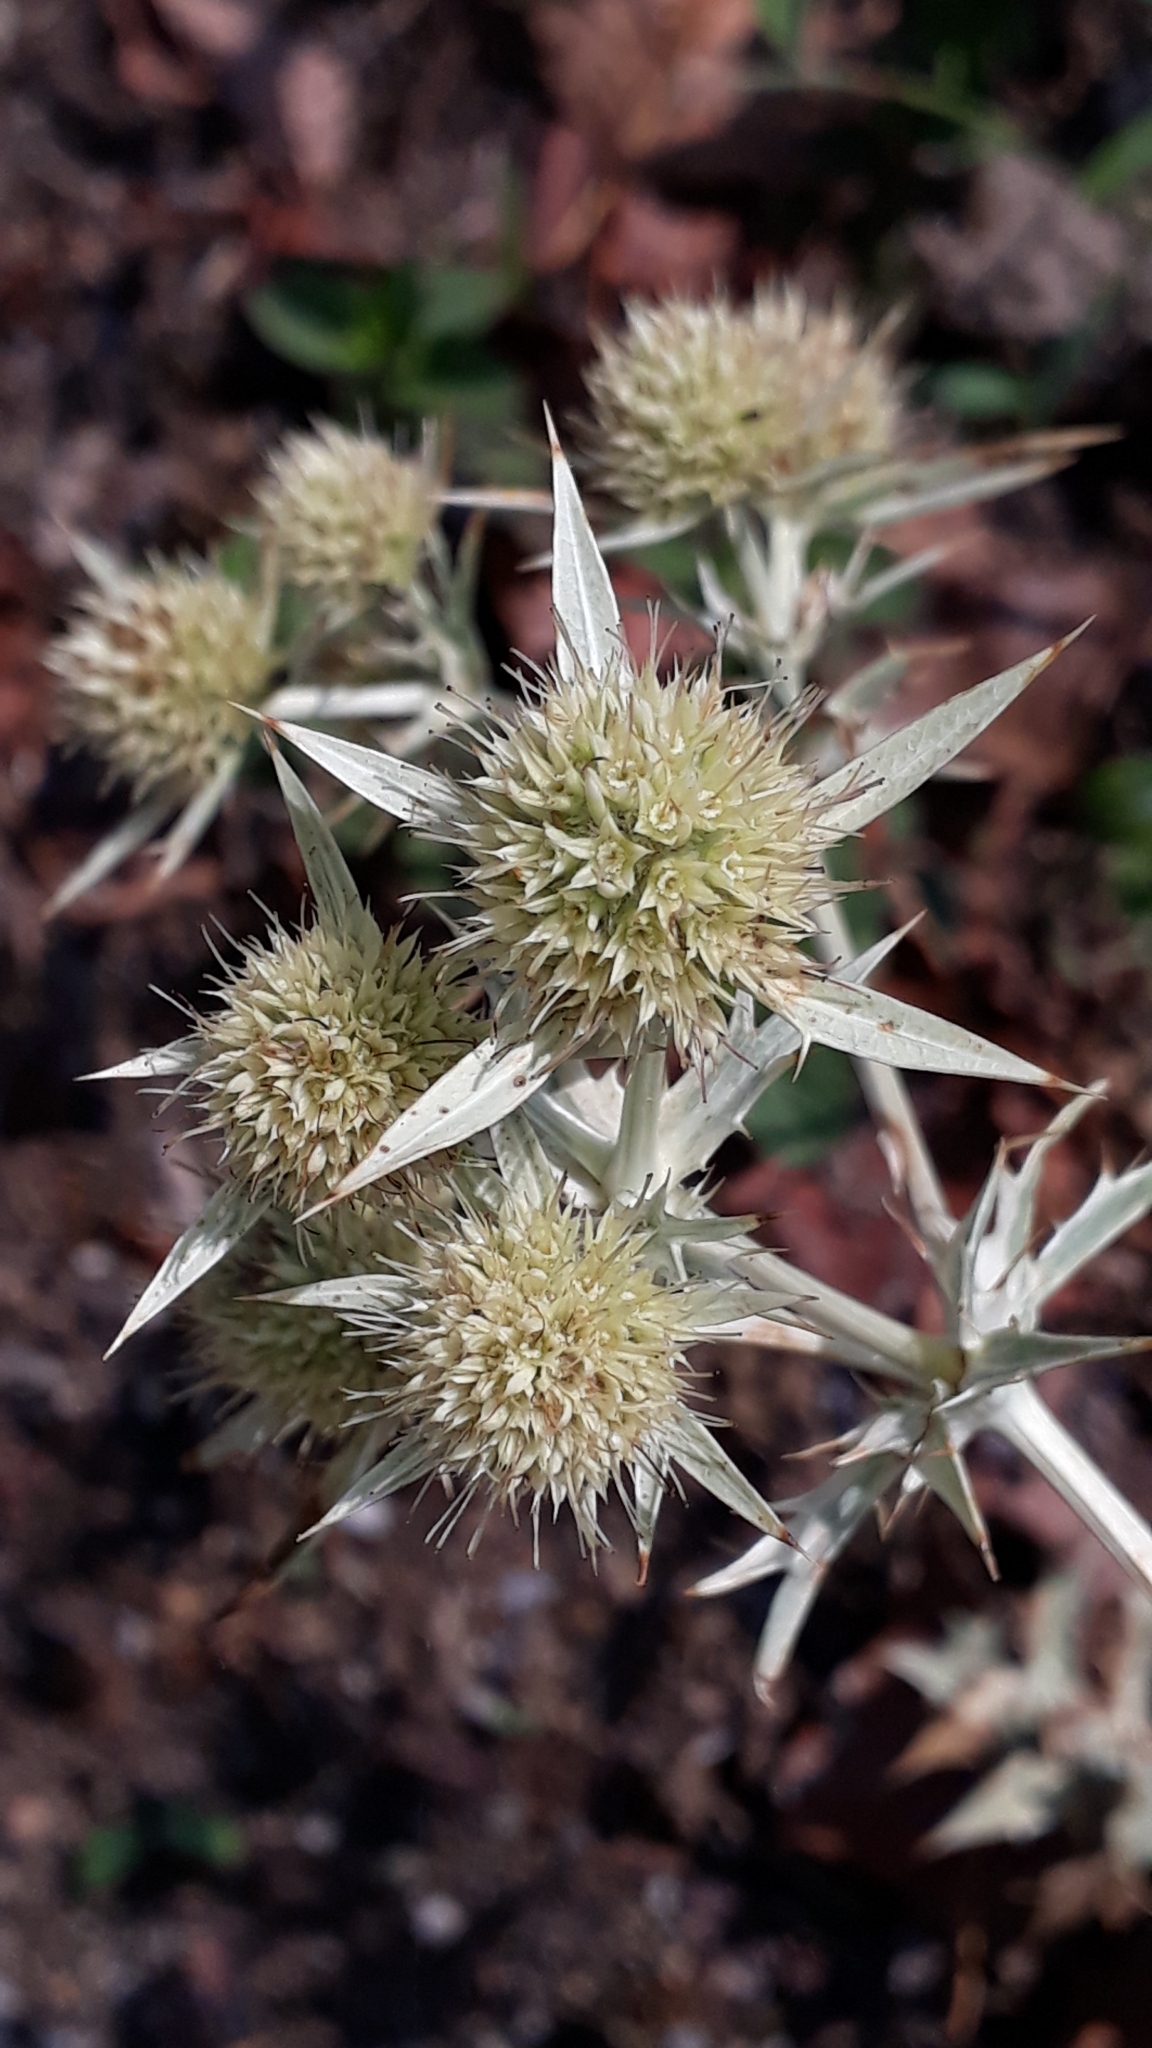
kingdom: Plantae
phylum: Tracheophyta
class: Magnoliopsida
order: Apiales
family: Apiaceae
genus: Eryngium
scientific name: Eryngium campestre
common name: Field eryngo
